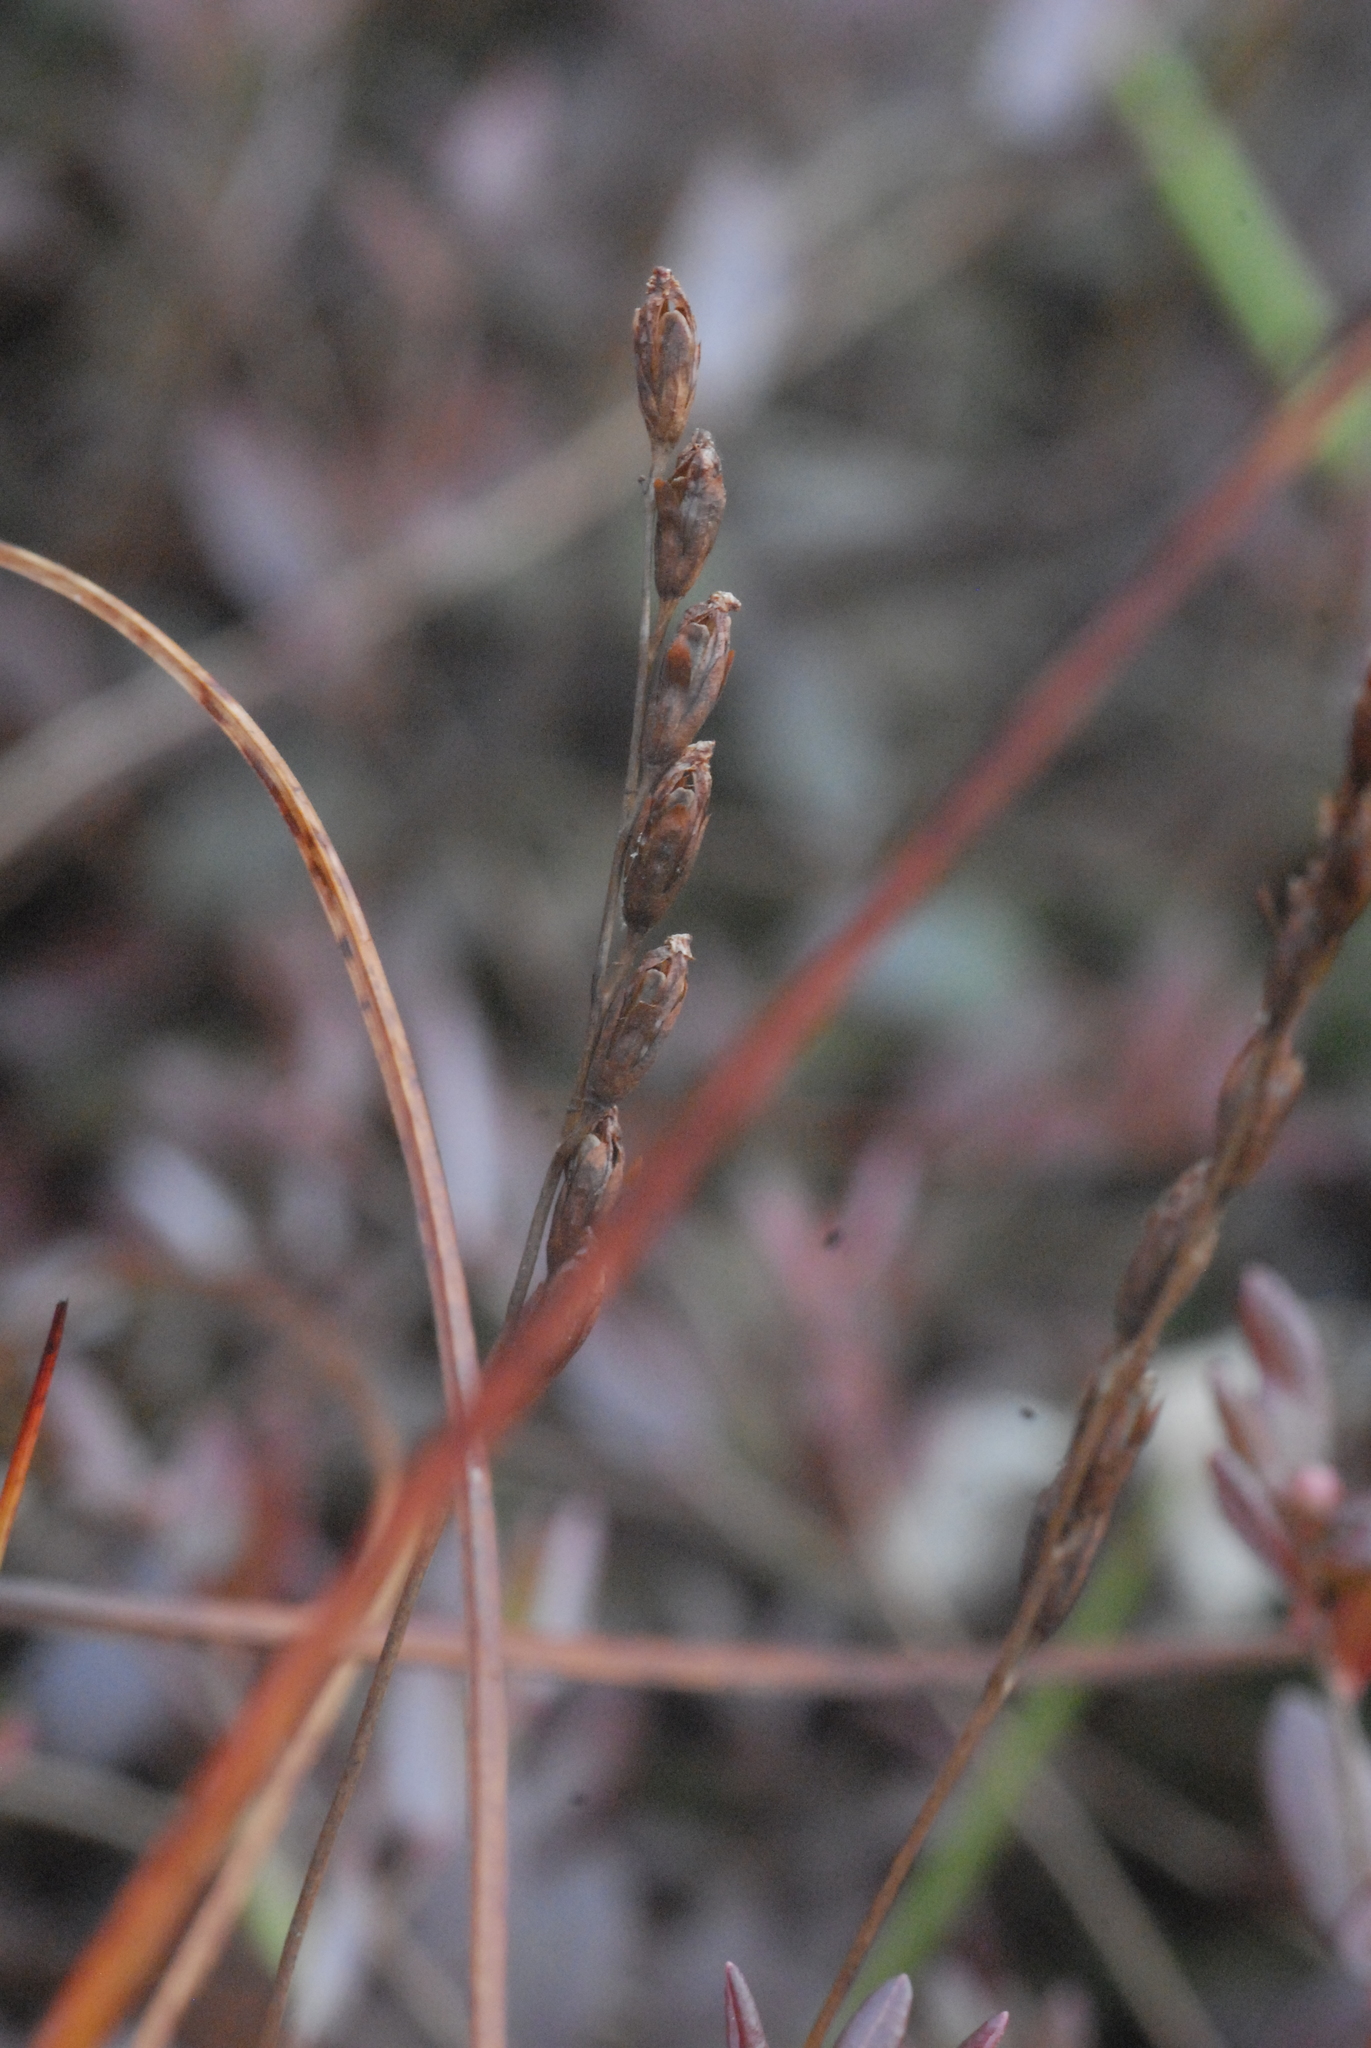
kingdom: Plantae
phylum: Tracheophyta
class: Magnoliopsida
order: Caryophyllales
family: Droseraceae
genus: Drosera
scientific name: Drosera rotundifolia
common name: Round-leaved sundew
